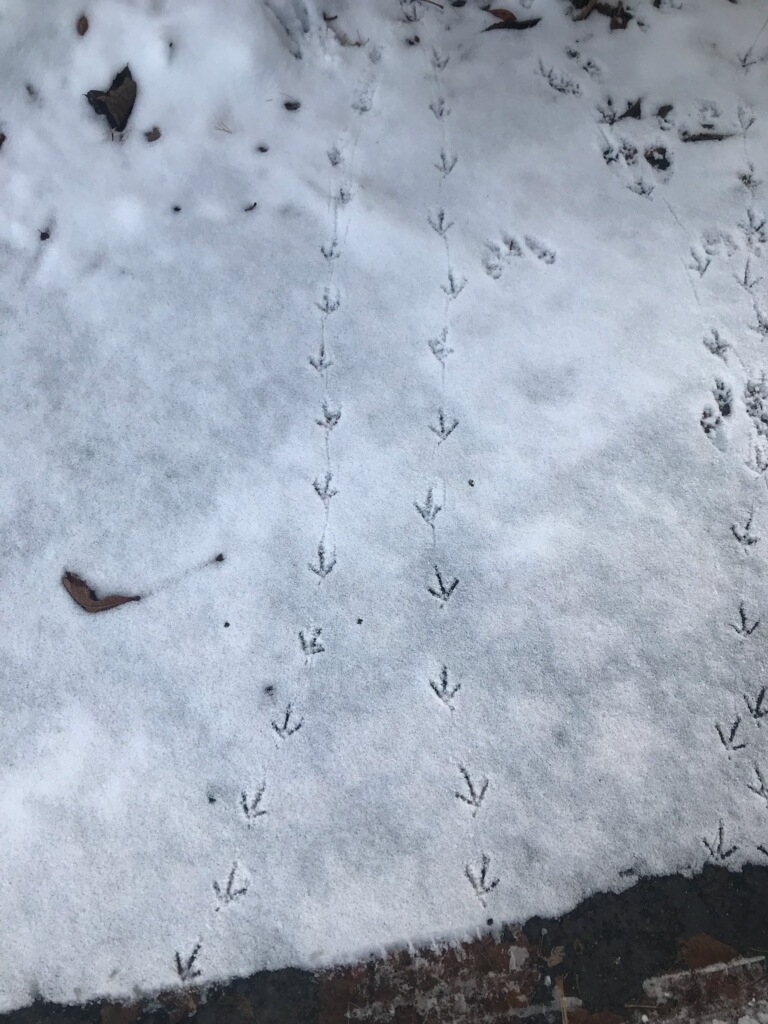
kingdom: Animalia
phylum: Chordata
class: Aves
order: Galliformes
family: Odontophoridae
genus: Callipepla
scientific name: Callipepla californica
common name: California quail
